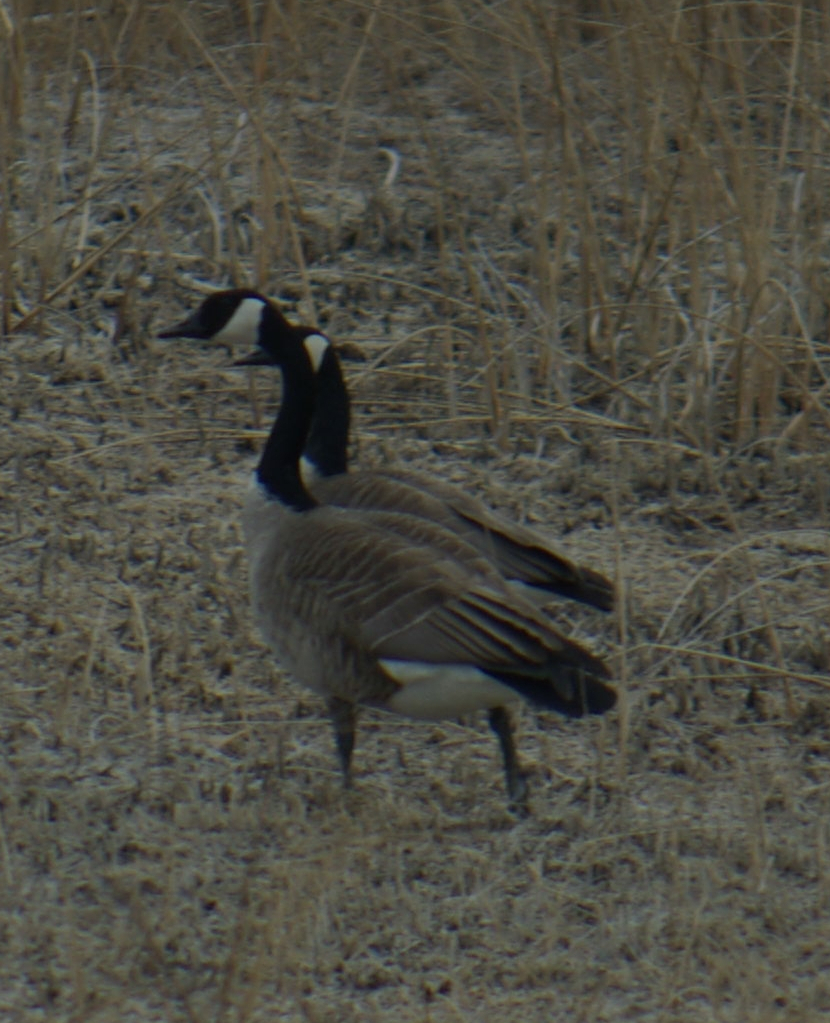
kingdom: Animalia
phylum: Chordata
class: Aves
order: Anseriformes
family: Anatidae
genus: Branta
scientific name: Branta canadensis
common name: Canada goose
